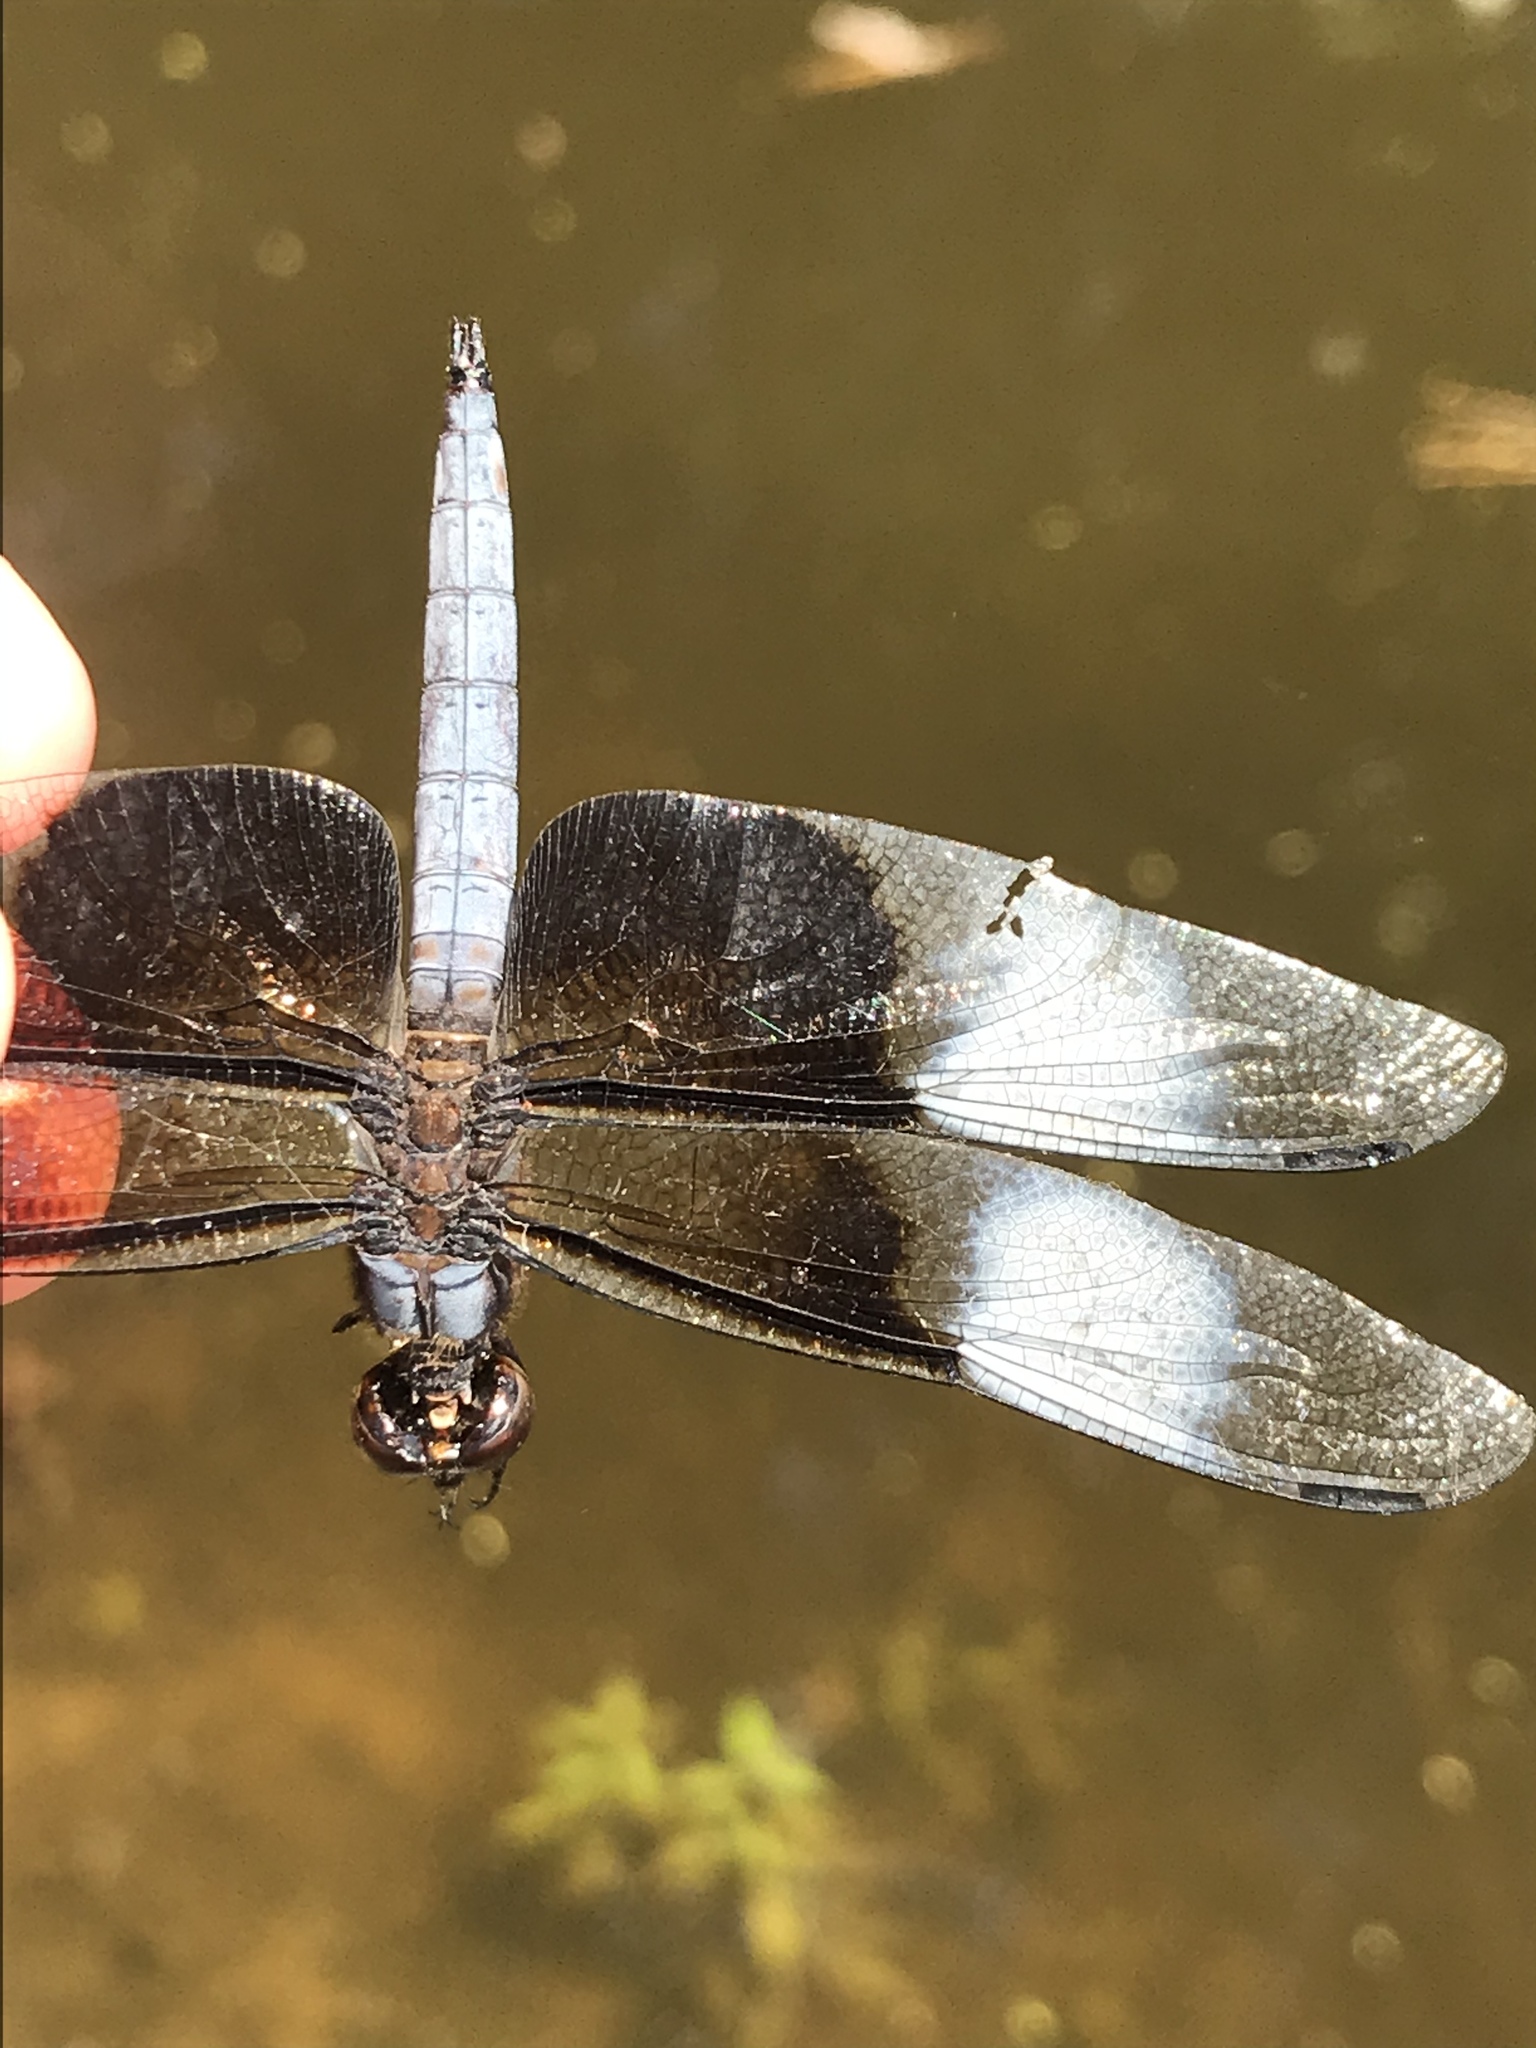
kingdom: Animalia
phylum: Arthropoda
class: Insecta
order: Odonata
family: Libellulidae
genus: Libellula
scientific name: Libellula luctuosa
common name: Widow skimmer
